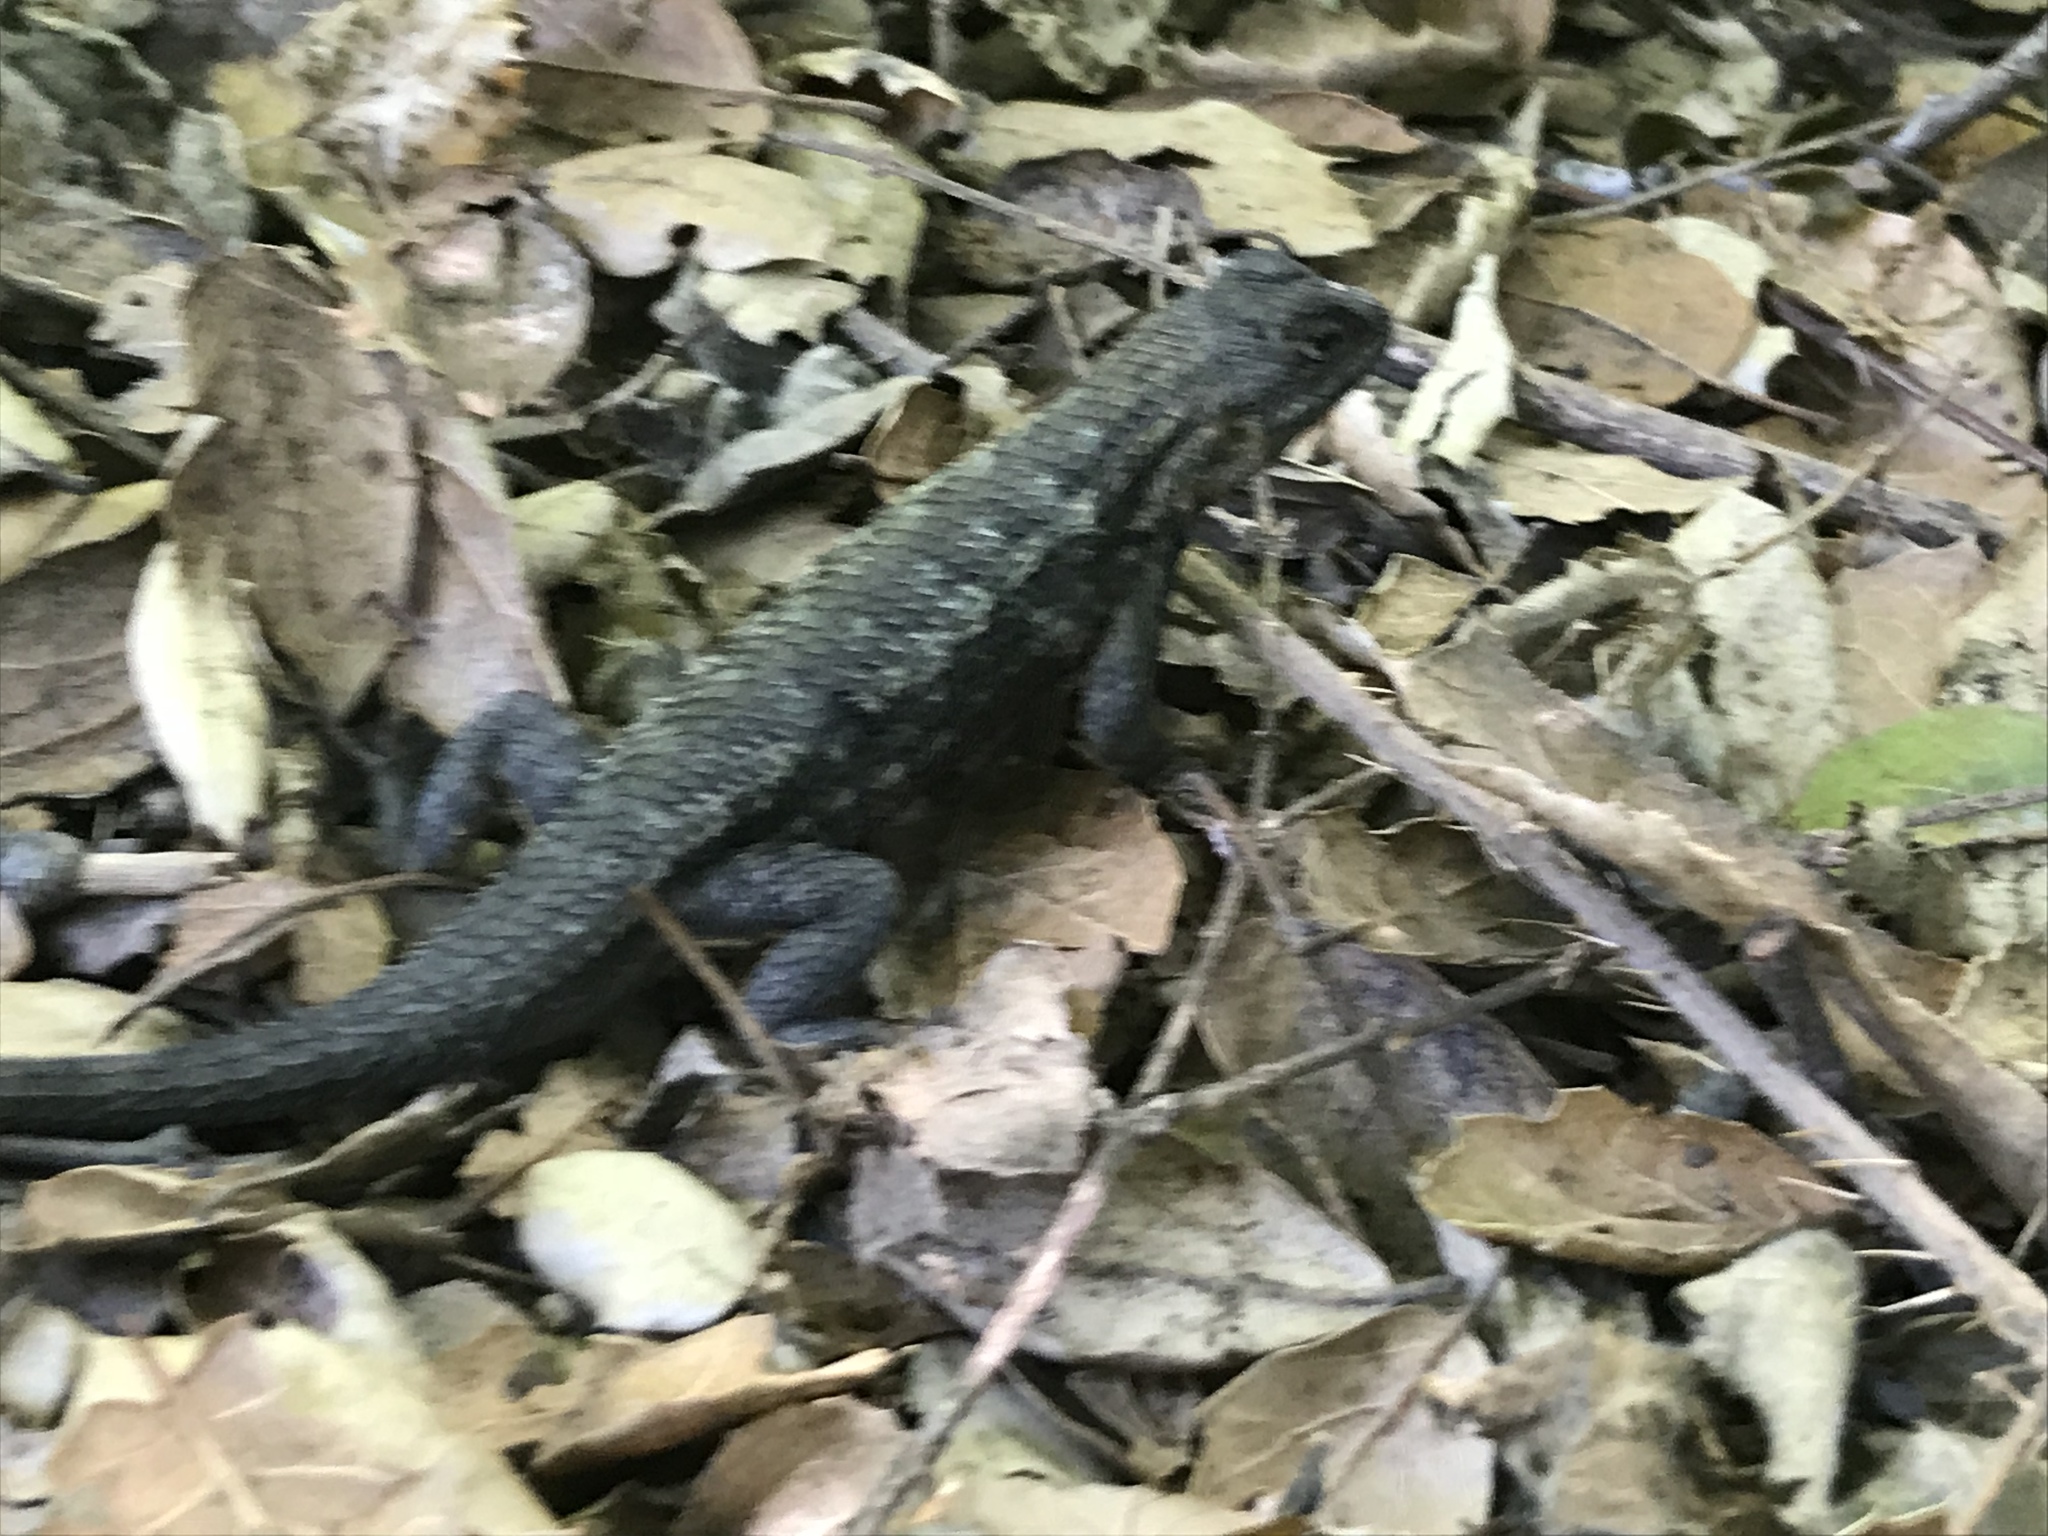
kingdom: Animalia
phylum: Chordata
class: Squamata
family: Phrynosomatidae
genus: Sceloporus
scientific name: Sceloporus occidentalis
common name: Western fence lizard
